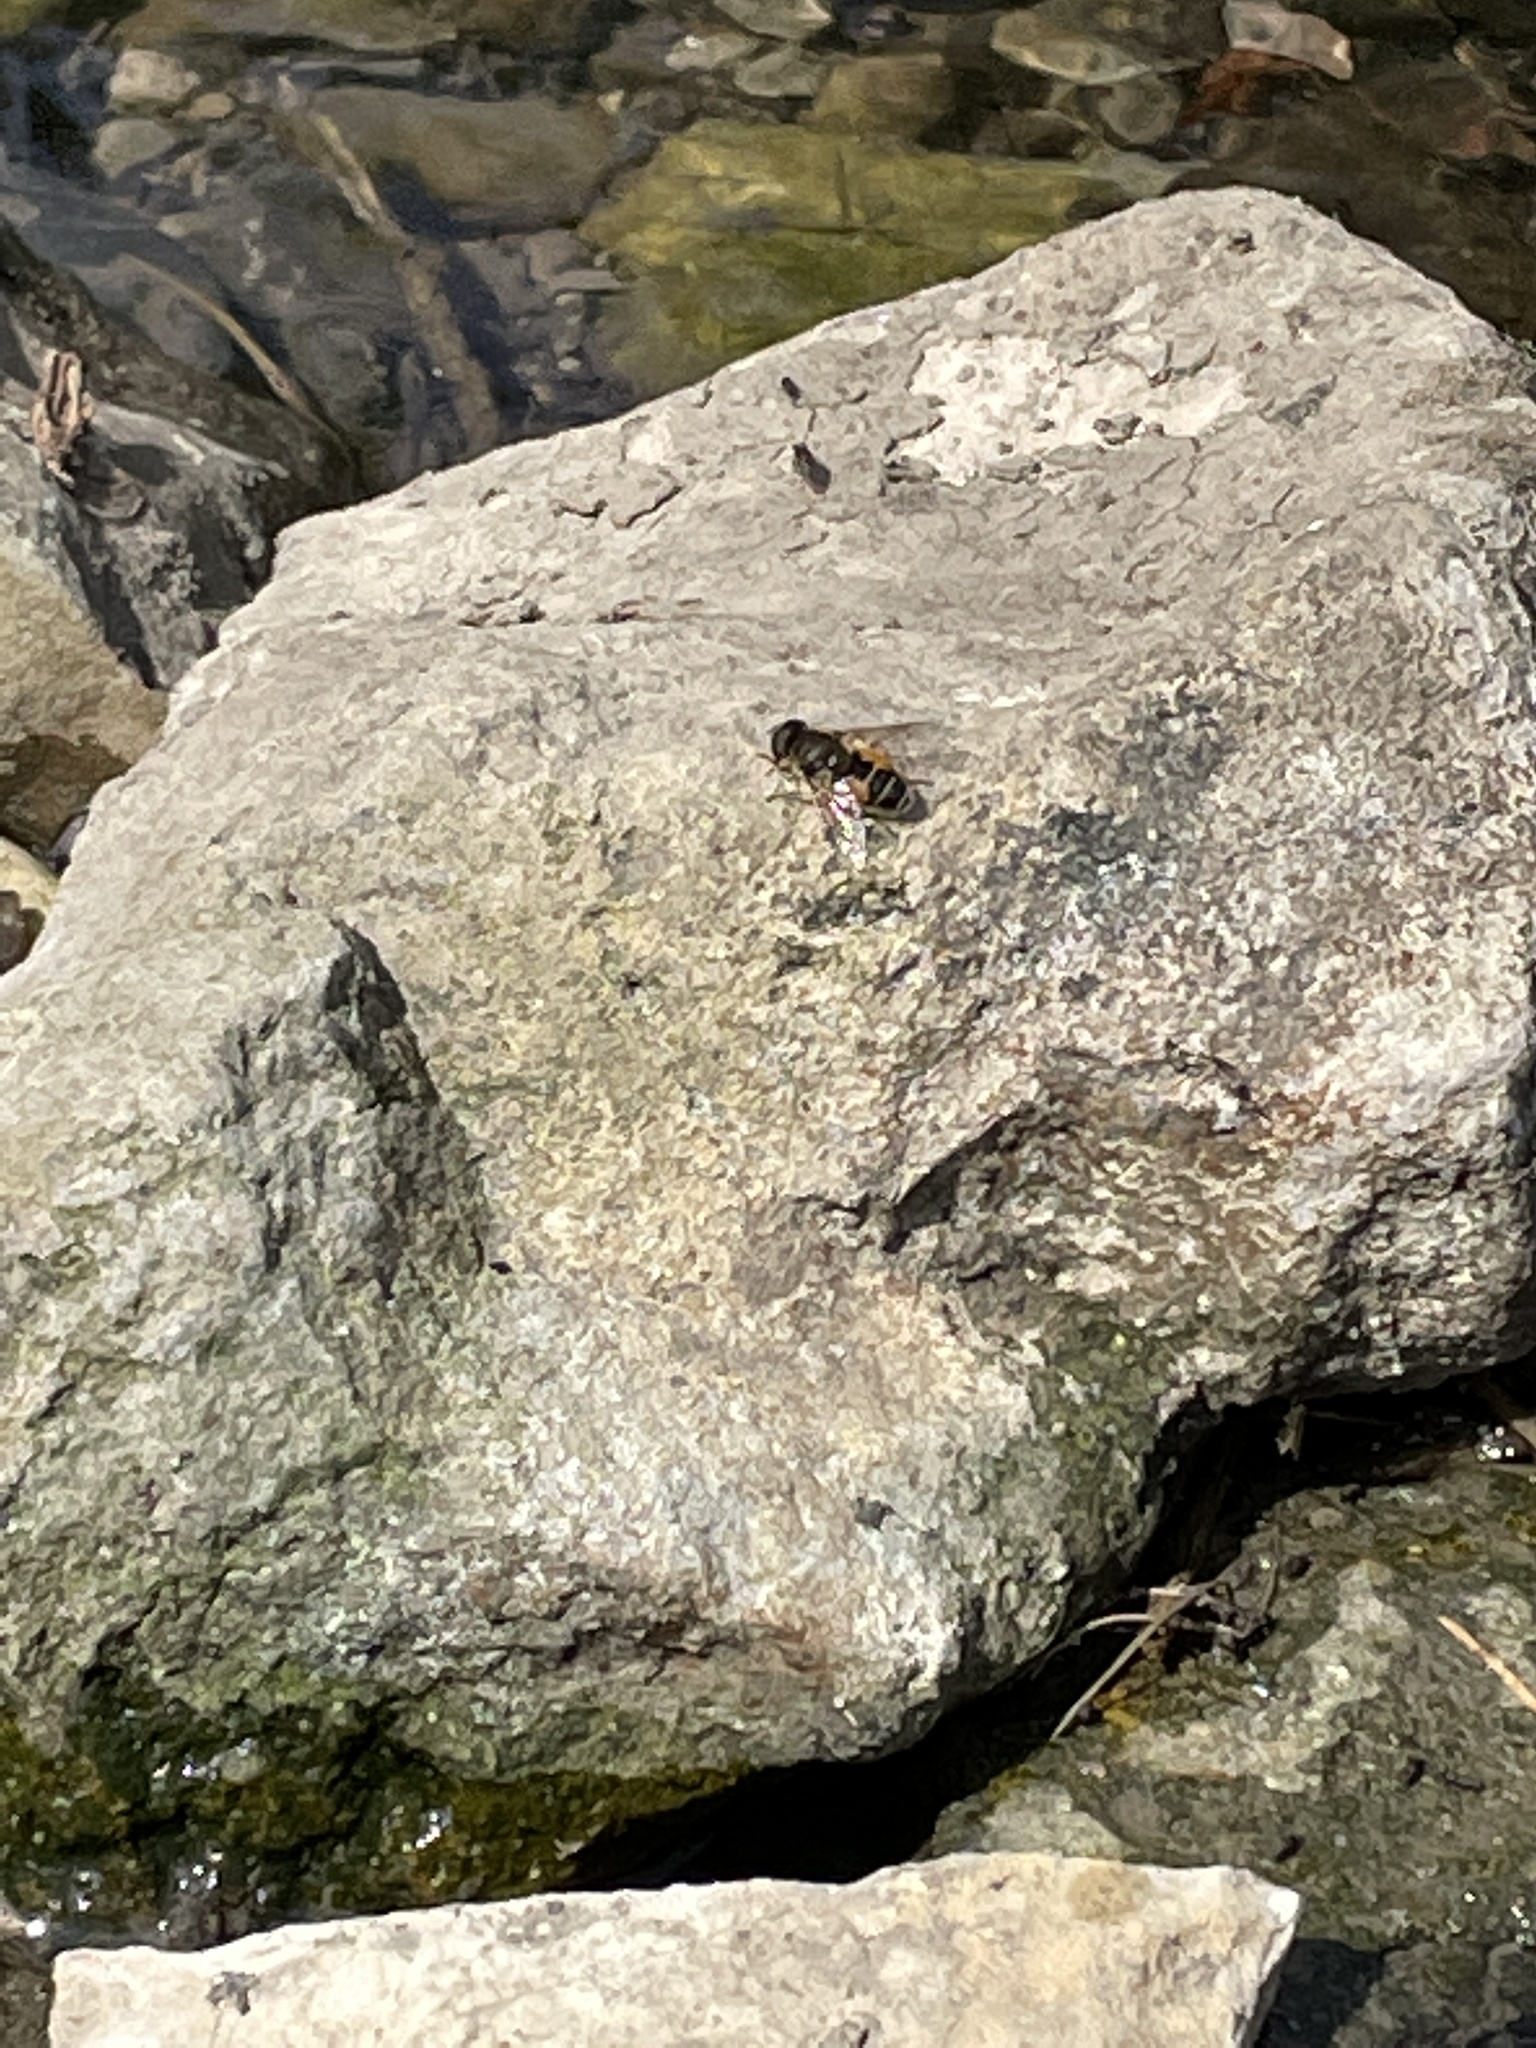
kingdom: Animalia
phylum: Arthropoda
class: Insecta
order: Diptera
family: Syrphidae
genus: Eristalis
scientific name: Eristalis arbustorum
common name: Hover fly
